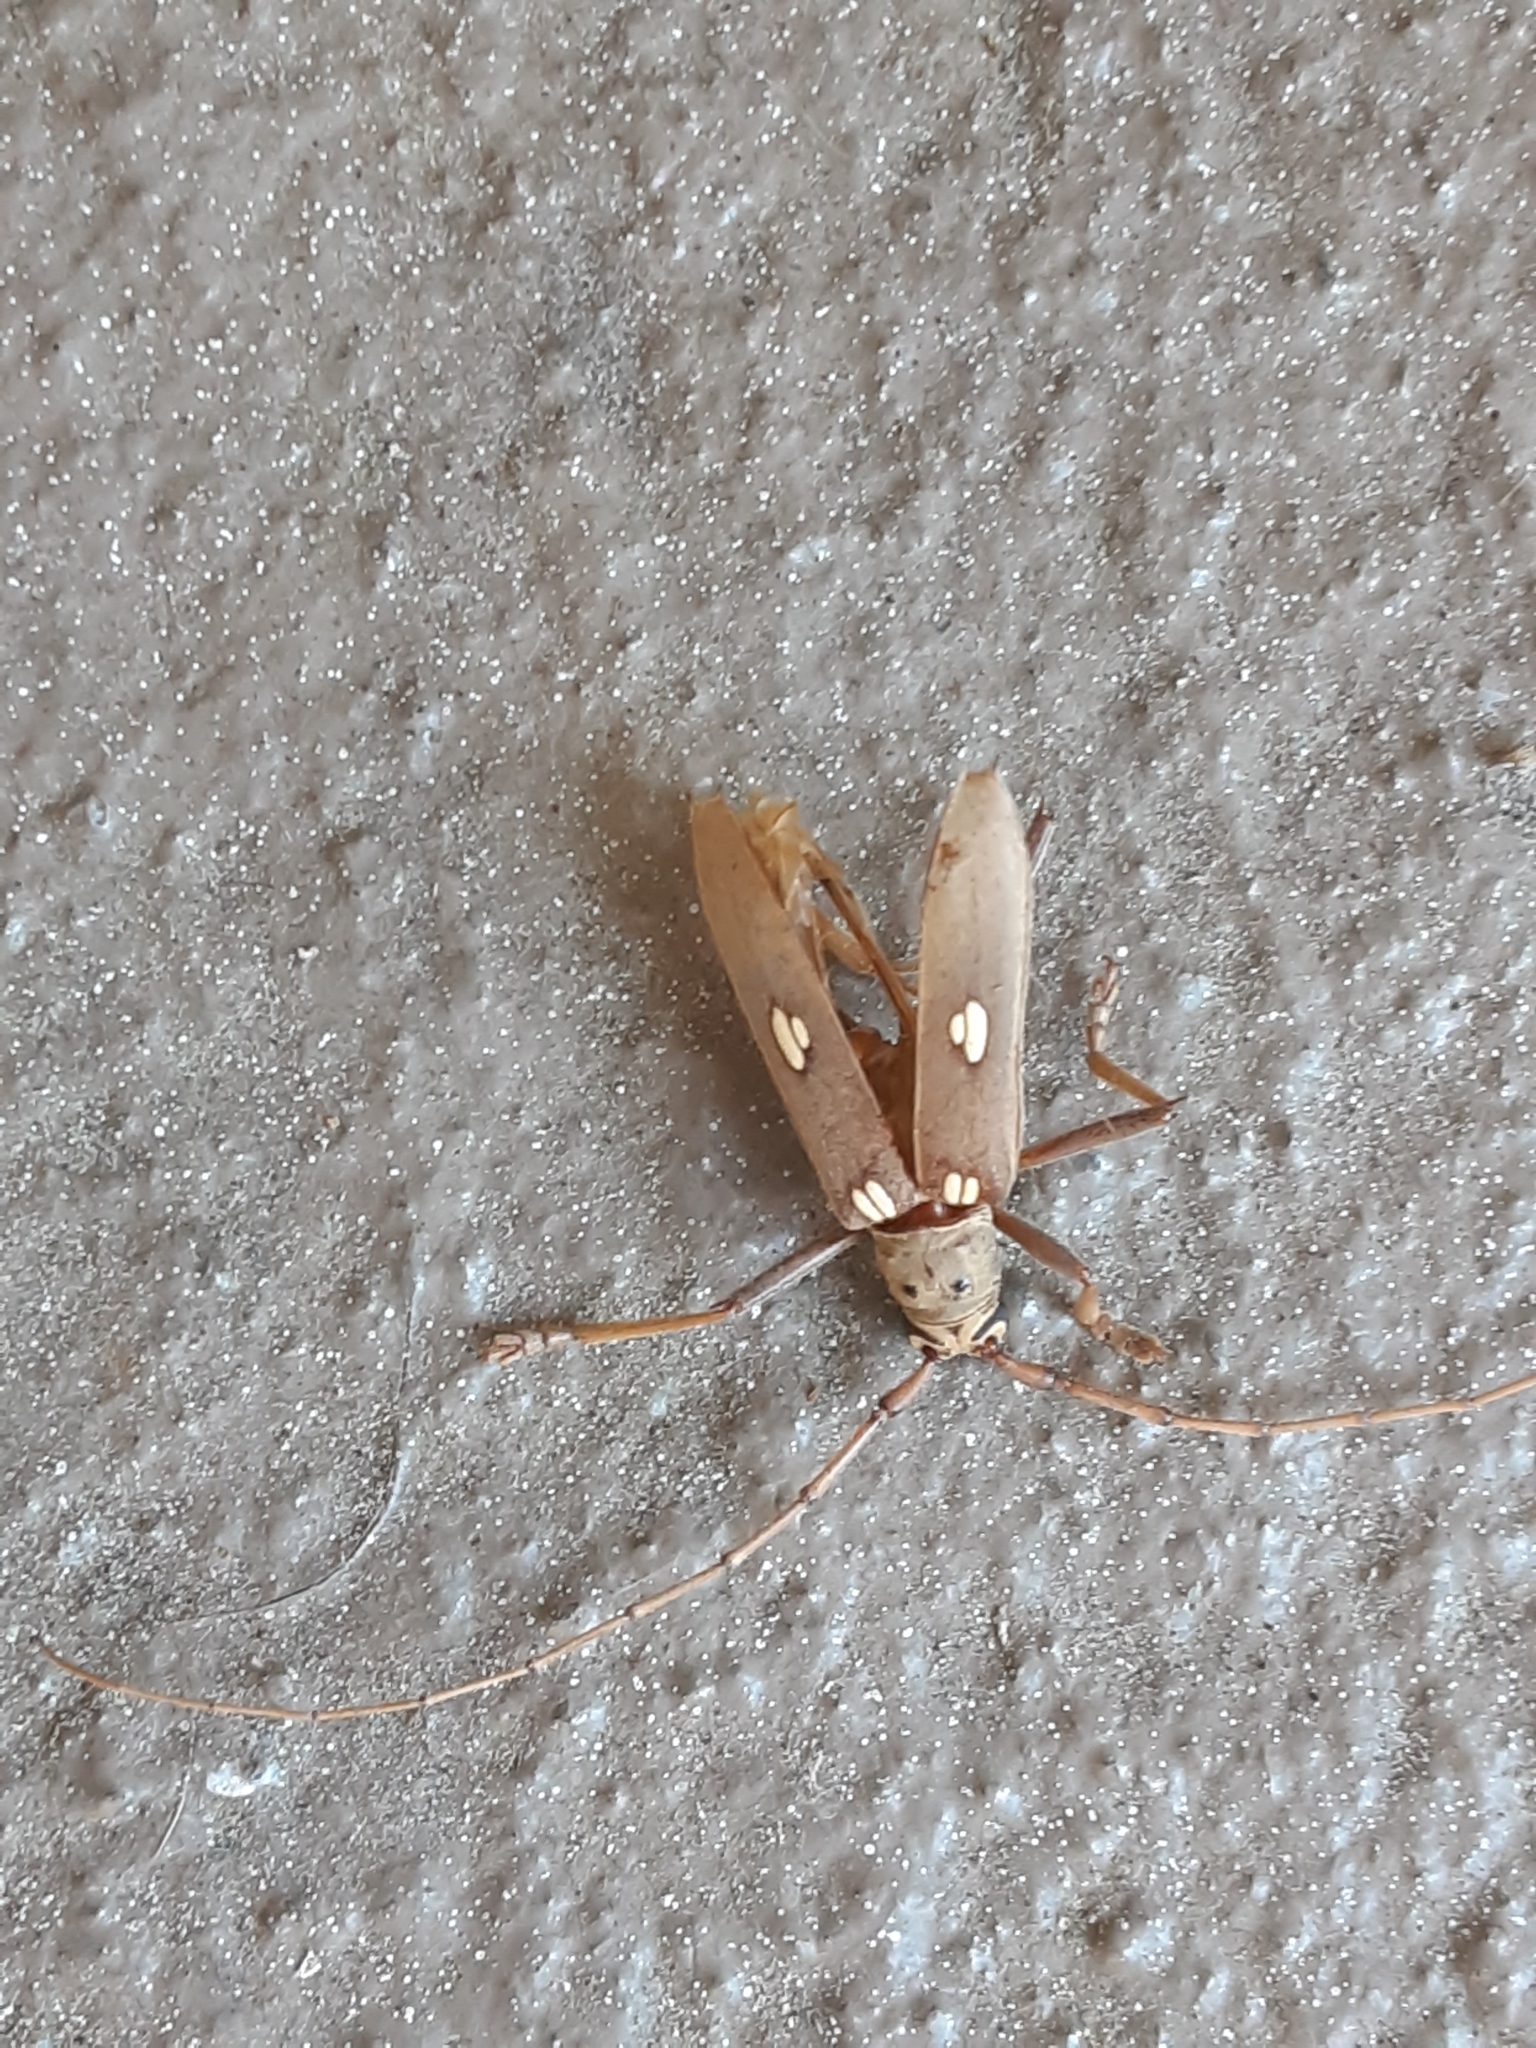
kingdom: Animalia
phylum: Arthropoda
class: Insecta
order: Coleoptera
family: Cerambycidae
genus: Eburia
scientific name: Eburia quadrigeminata
